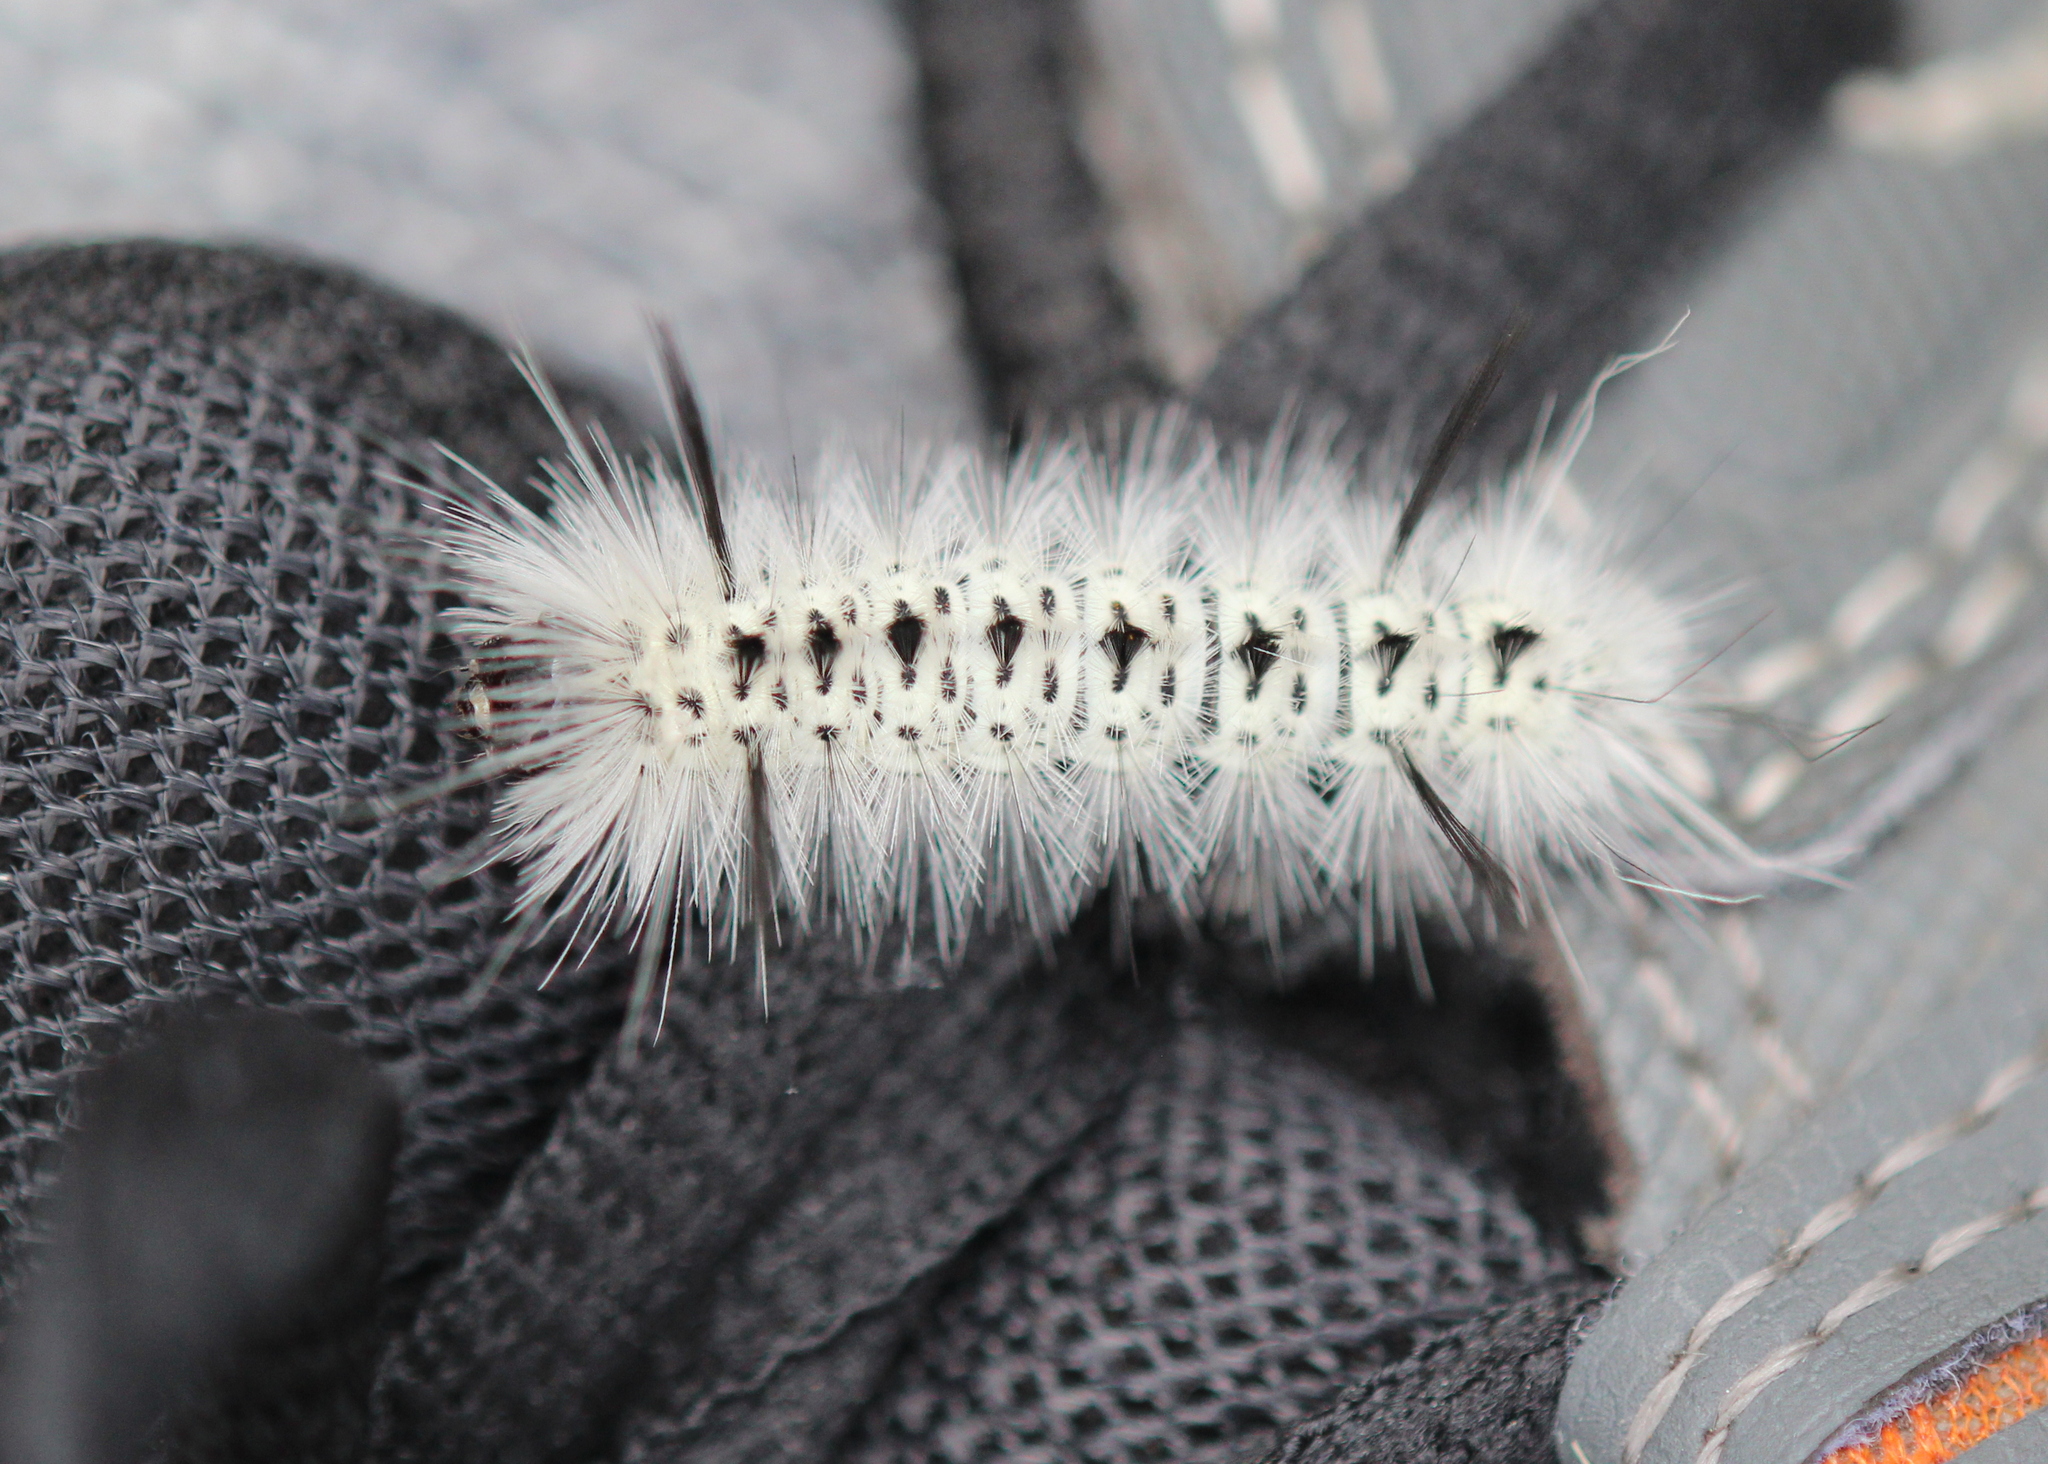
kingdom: Animalia
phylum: Arthropoda
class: Insecta
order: Lepidoptera
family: Erebidae
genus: Lophocampa
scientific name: Lophocampa caryae
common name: Hickory tussock moth
